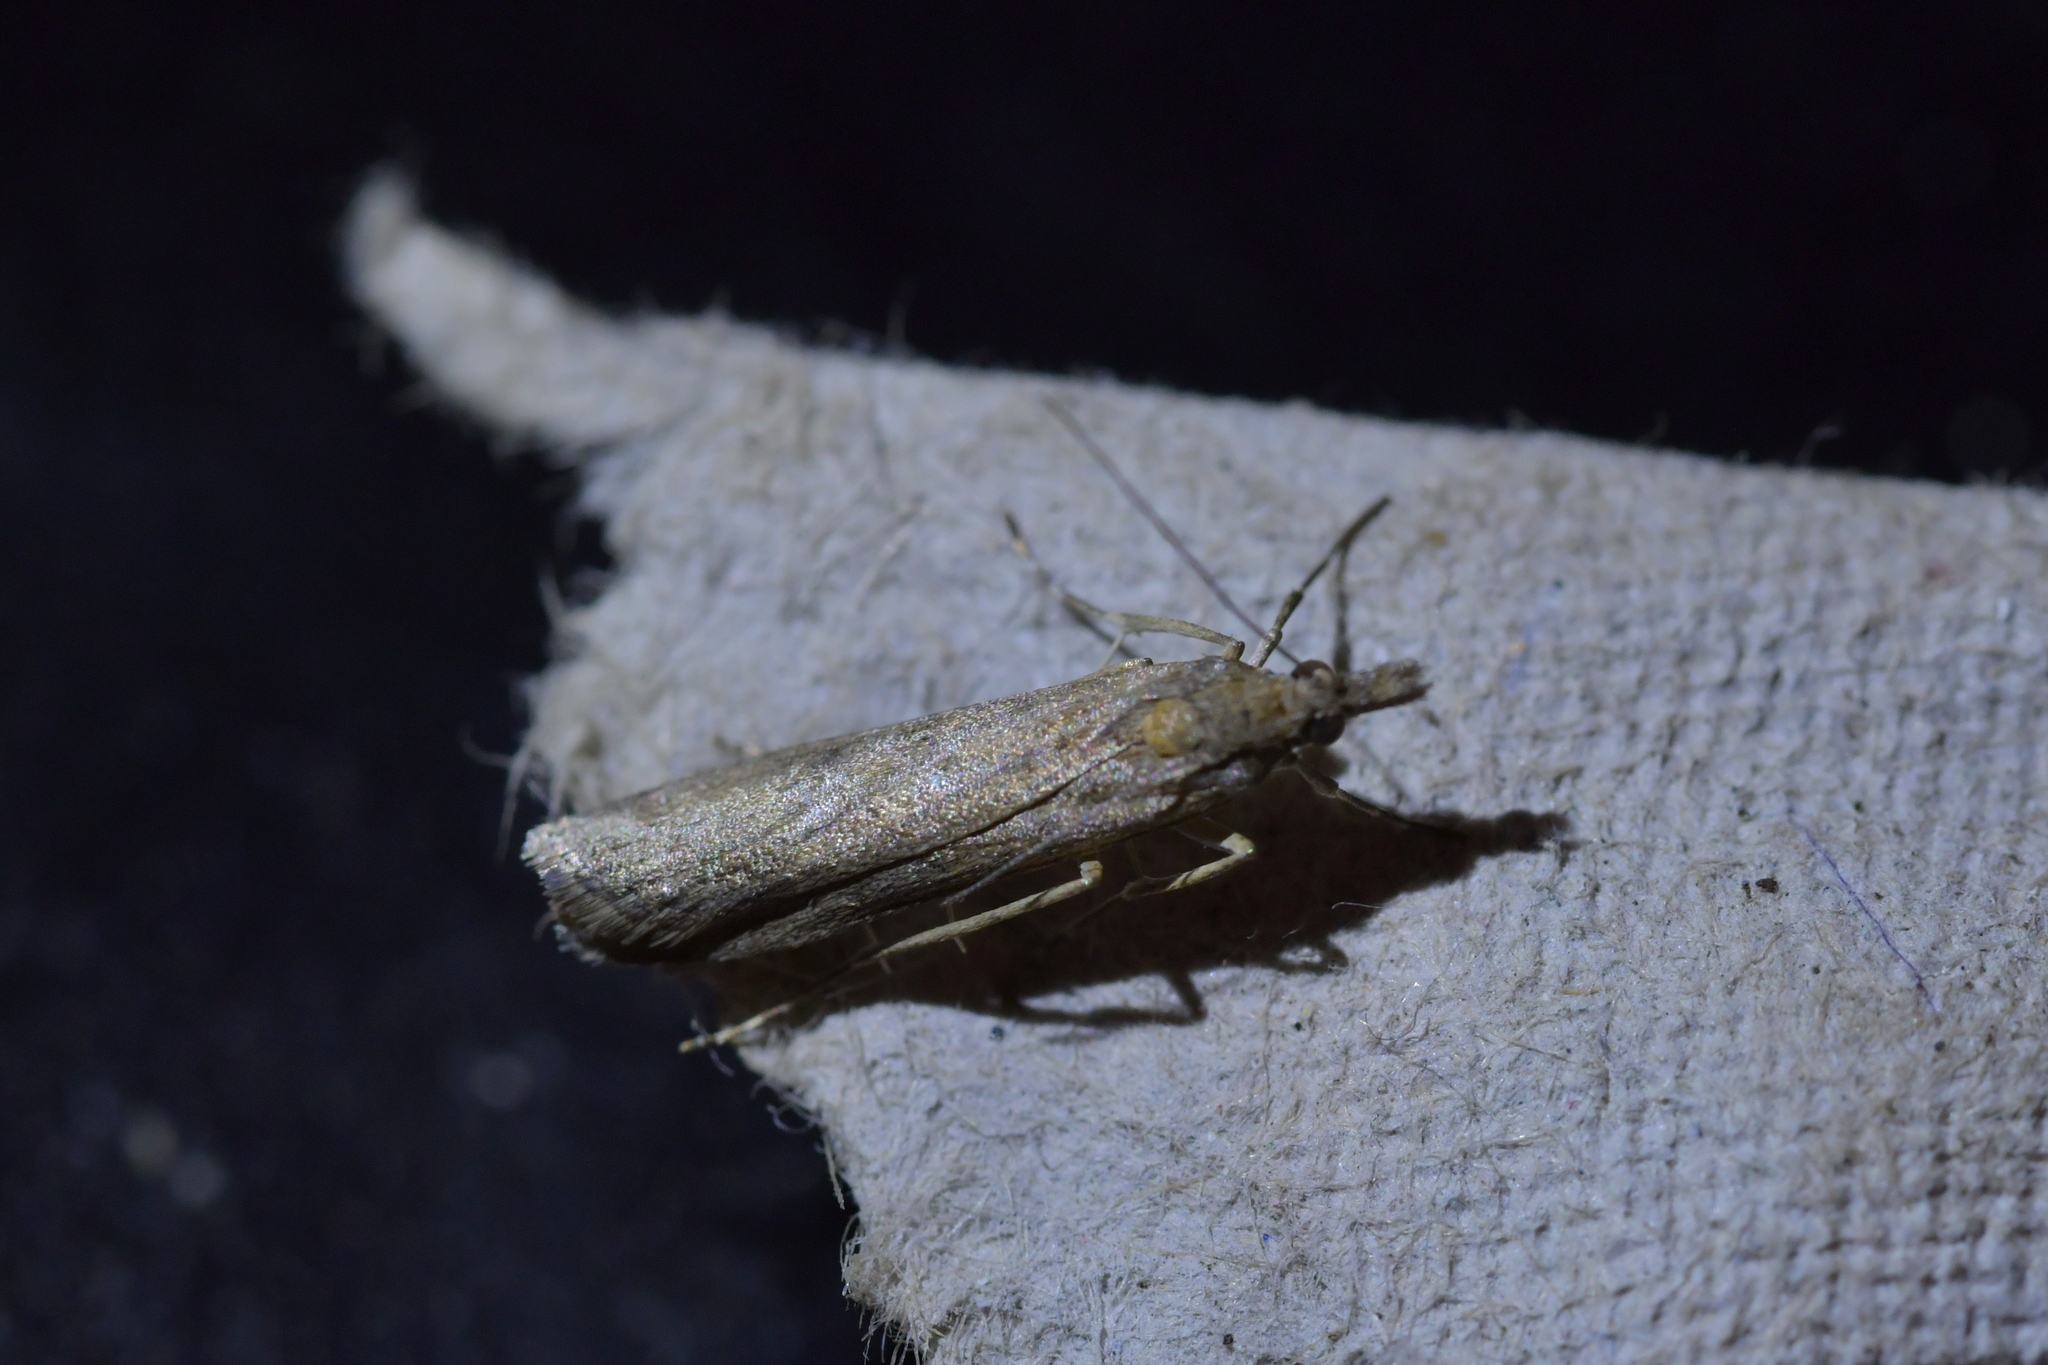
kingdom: Animalia
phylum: Arthropoda
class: Insecta
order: Lepidoptera
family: Crambidae
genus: Eudonia
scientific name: Eudonia leptalea
